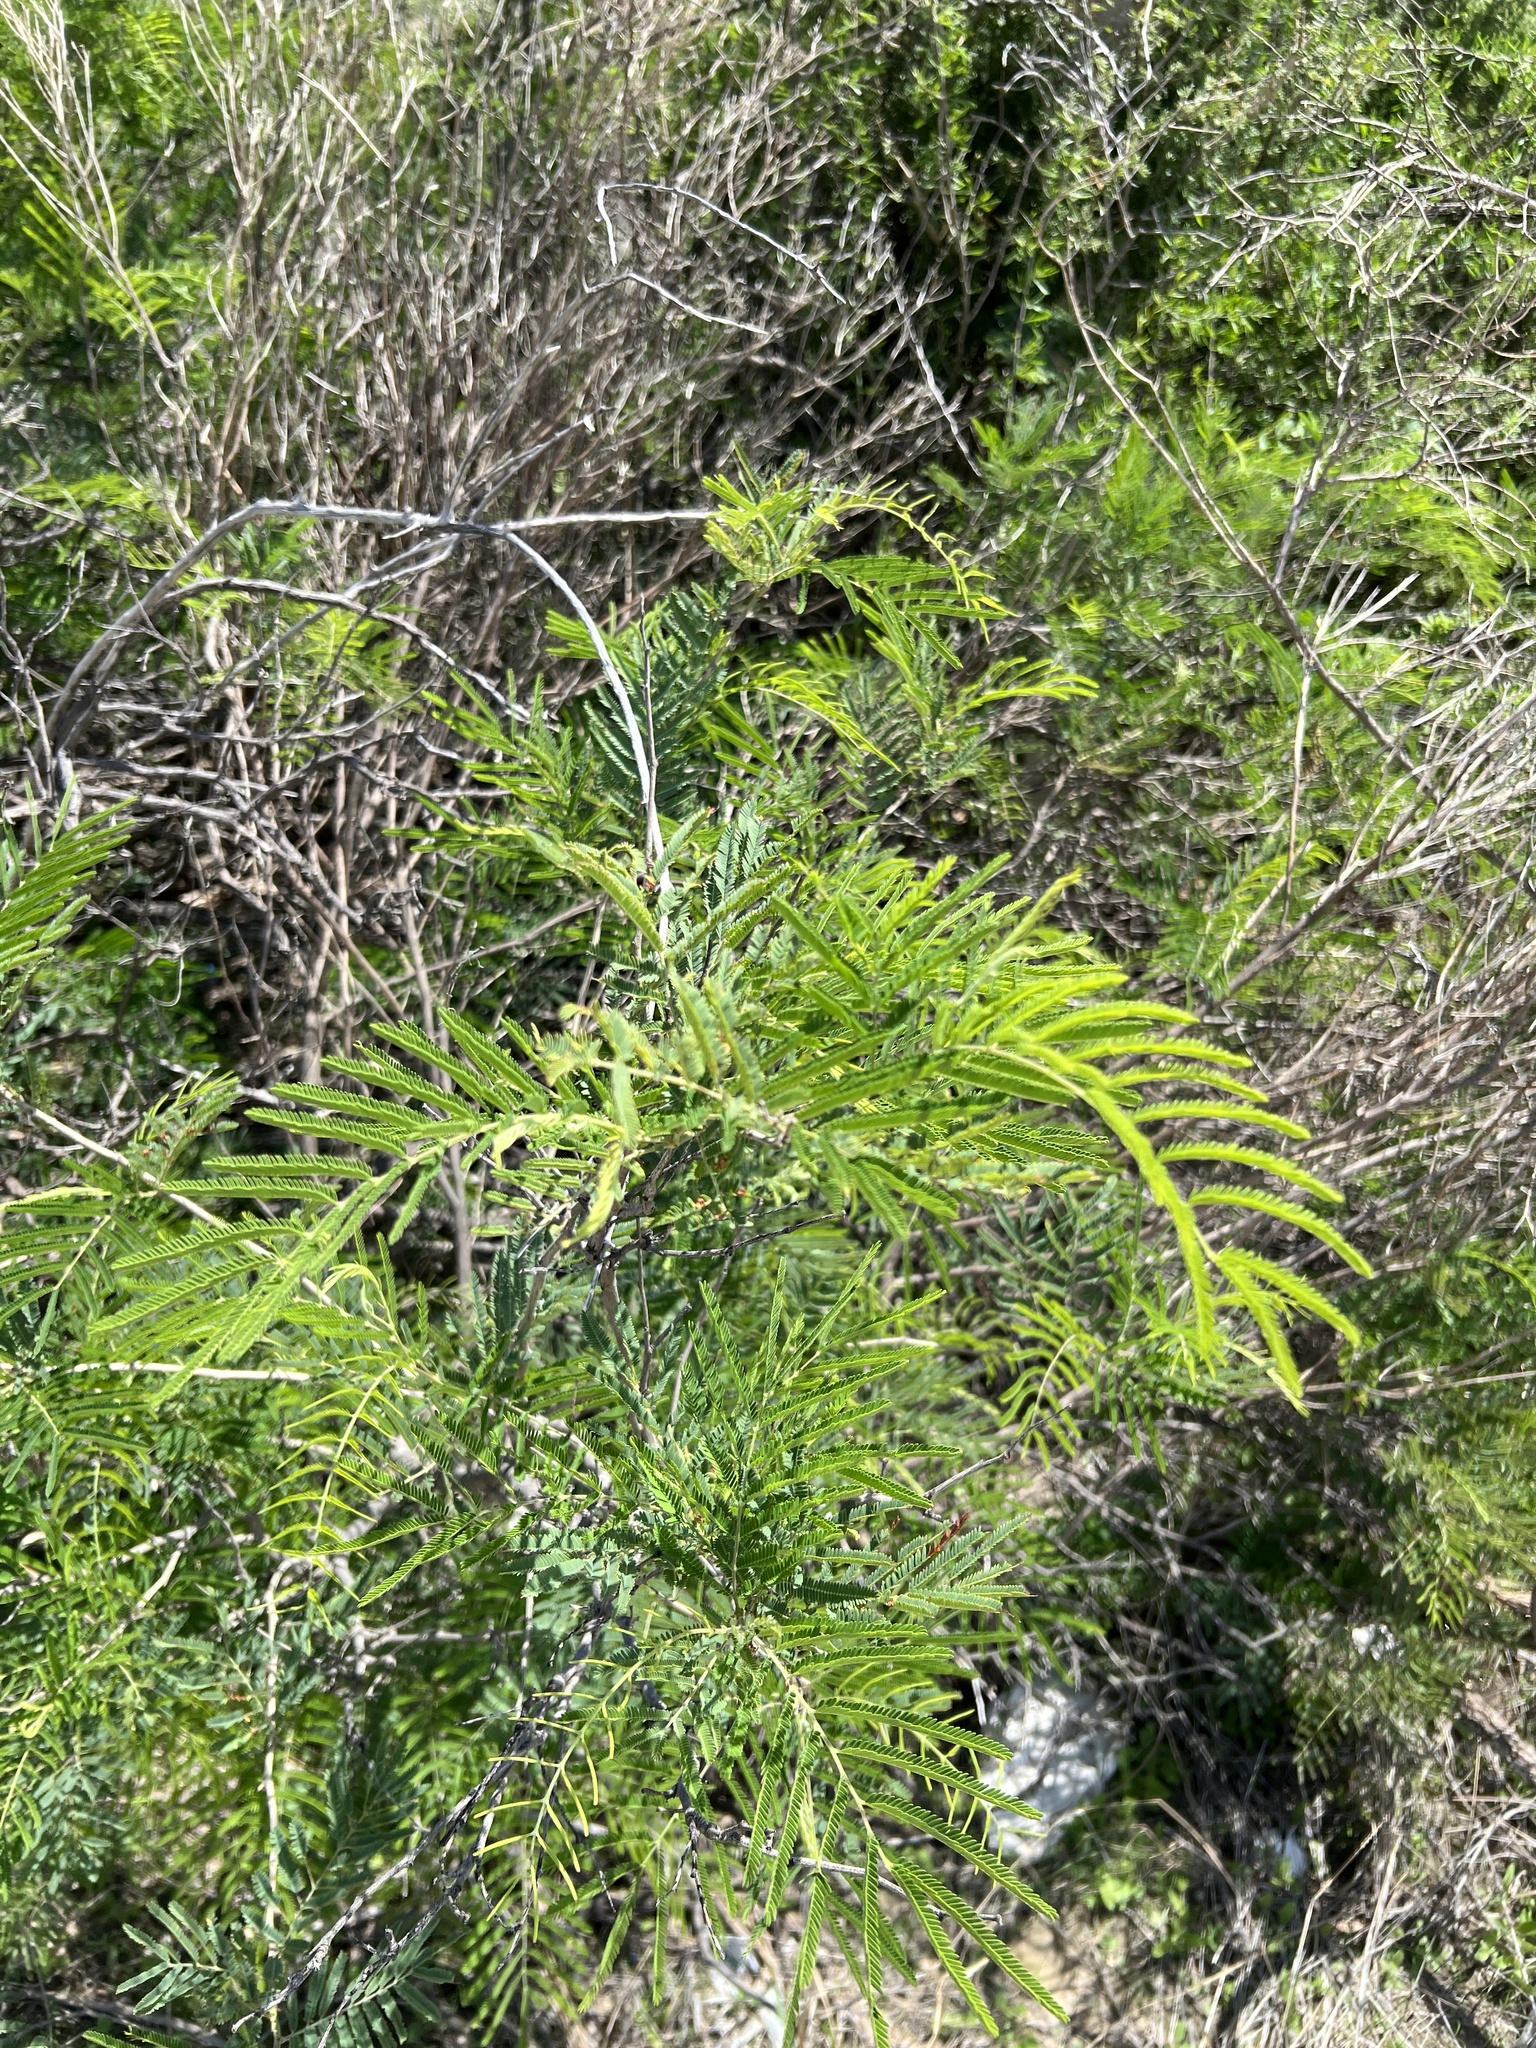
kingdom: Plantae
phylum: Tracheophyta
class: Magnoliopsida
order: Fabales
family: Fabaceae
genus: Senegalia
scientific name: Senegalia berlandieri
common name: Berlandier acacia
